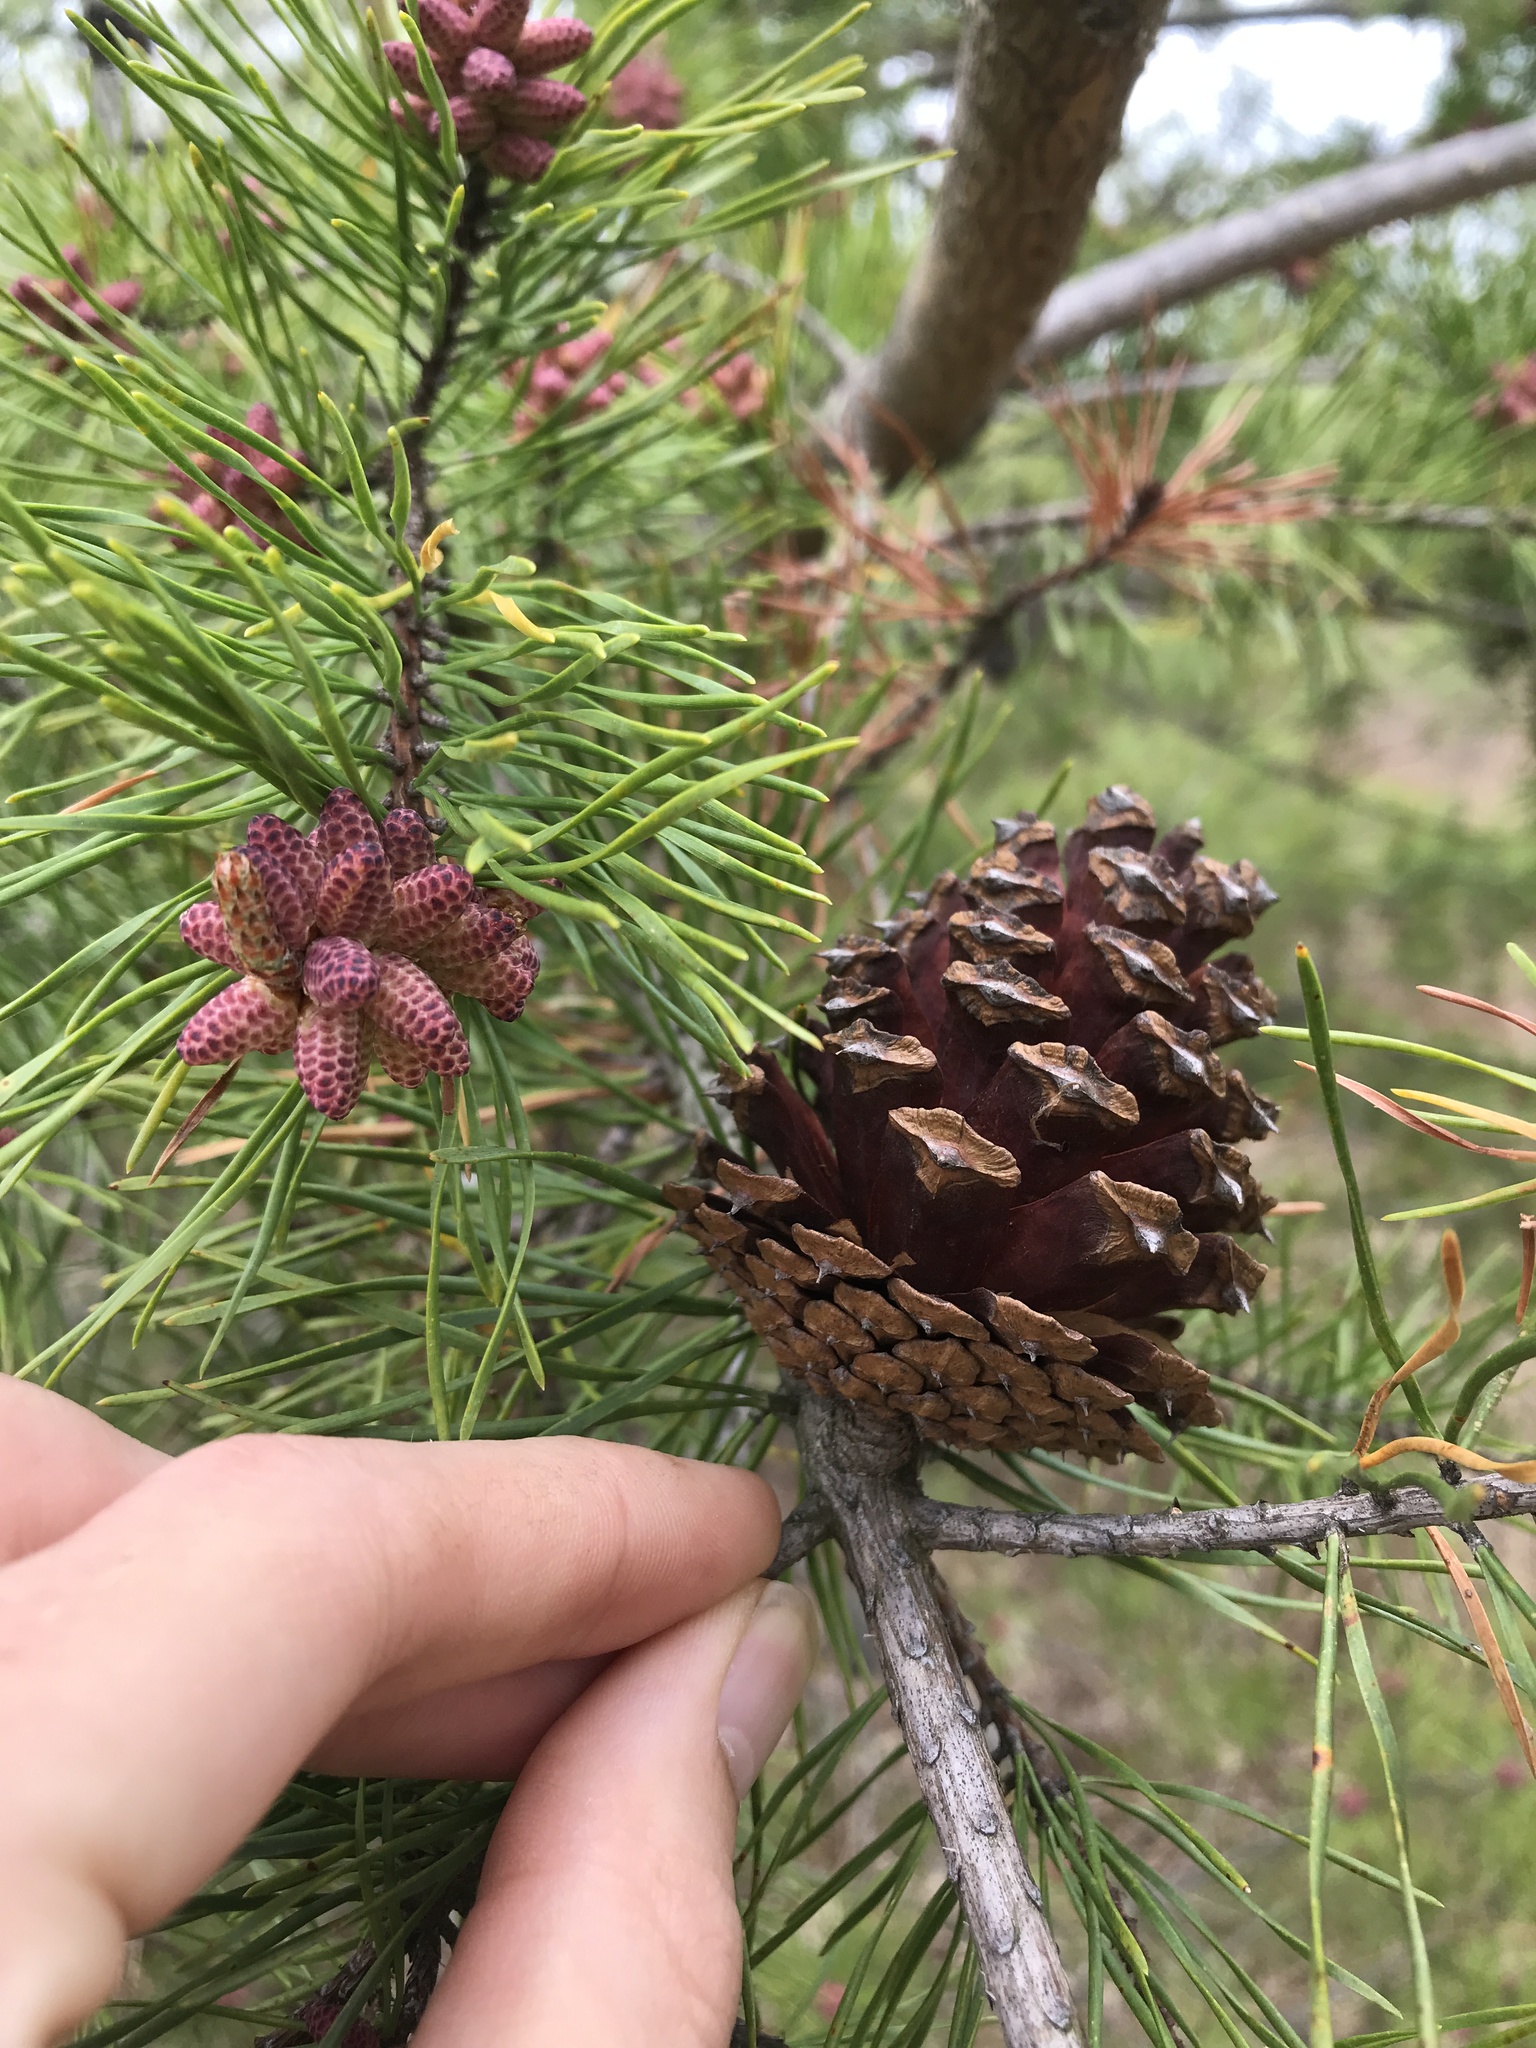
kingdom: Plantae
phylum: Tracheophyta
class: Pinopsida
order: Pinales
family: Pinaceae
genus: Pinus
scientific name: Pinus virginiana
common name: Scrub pine
